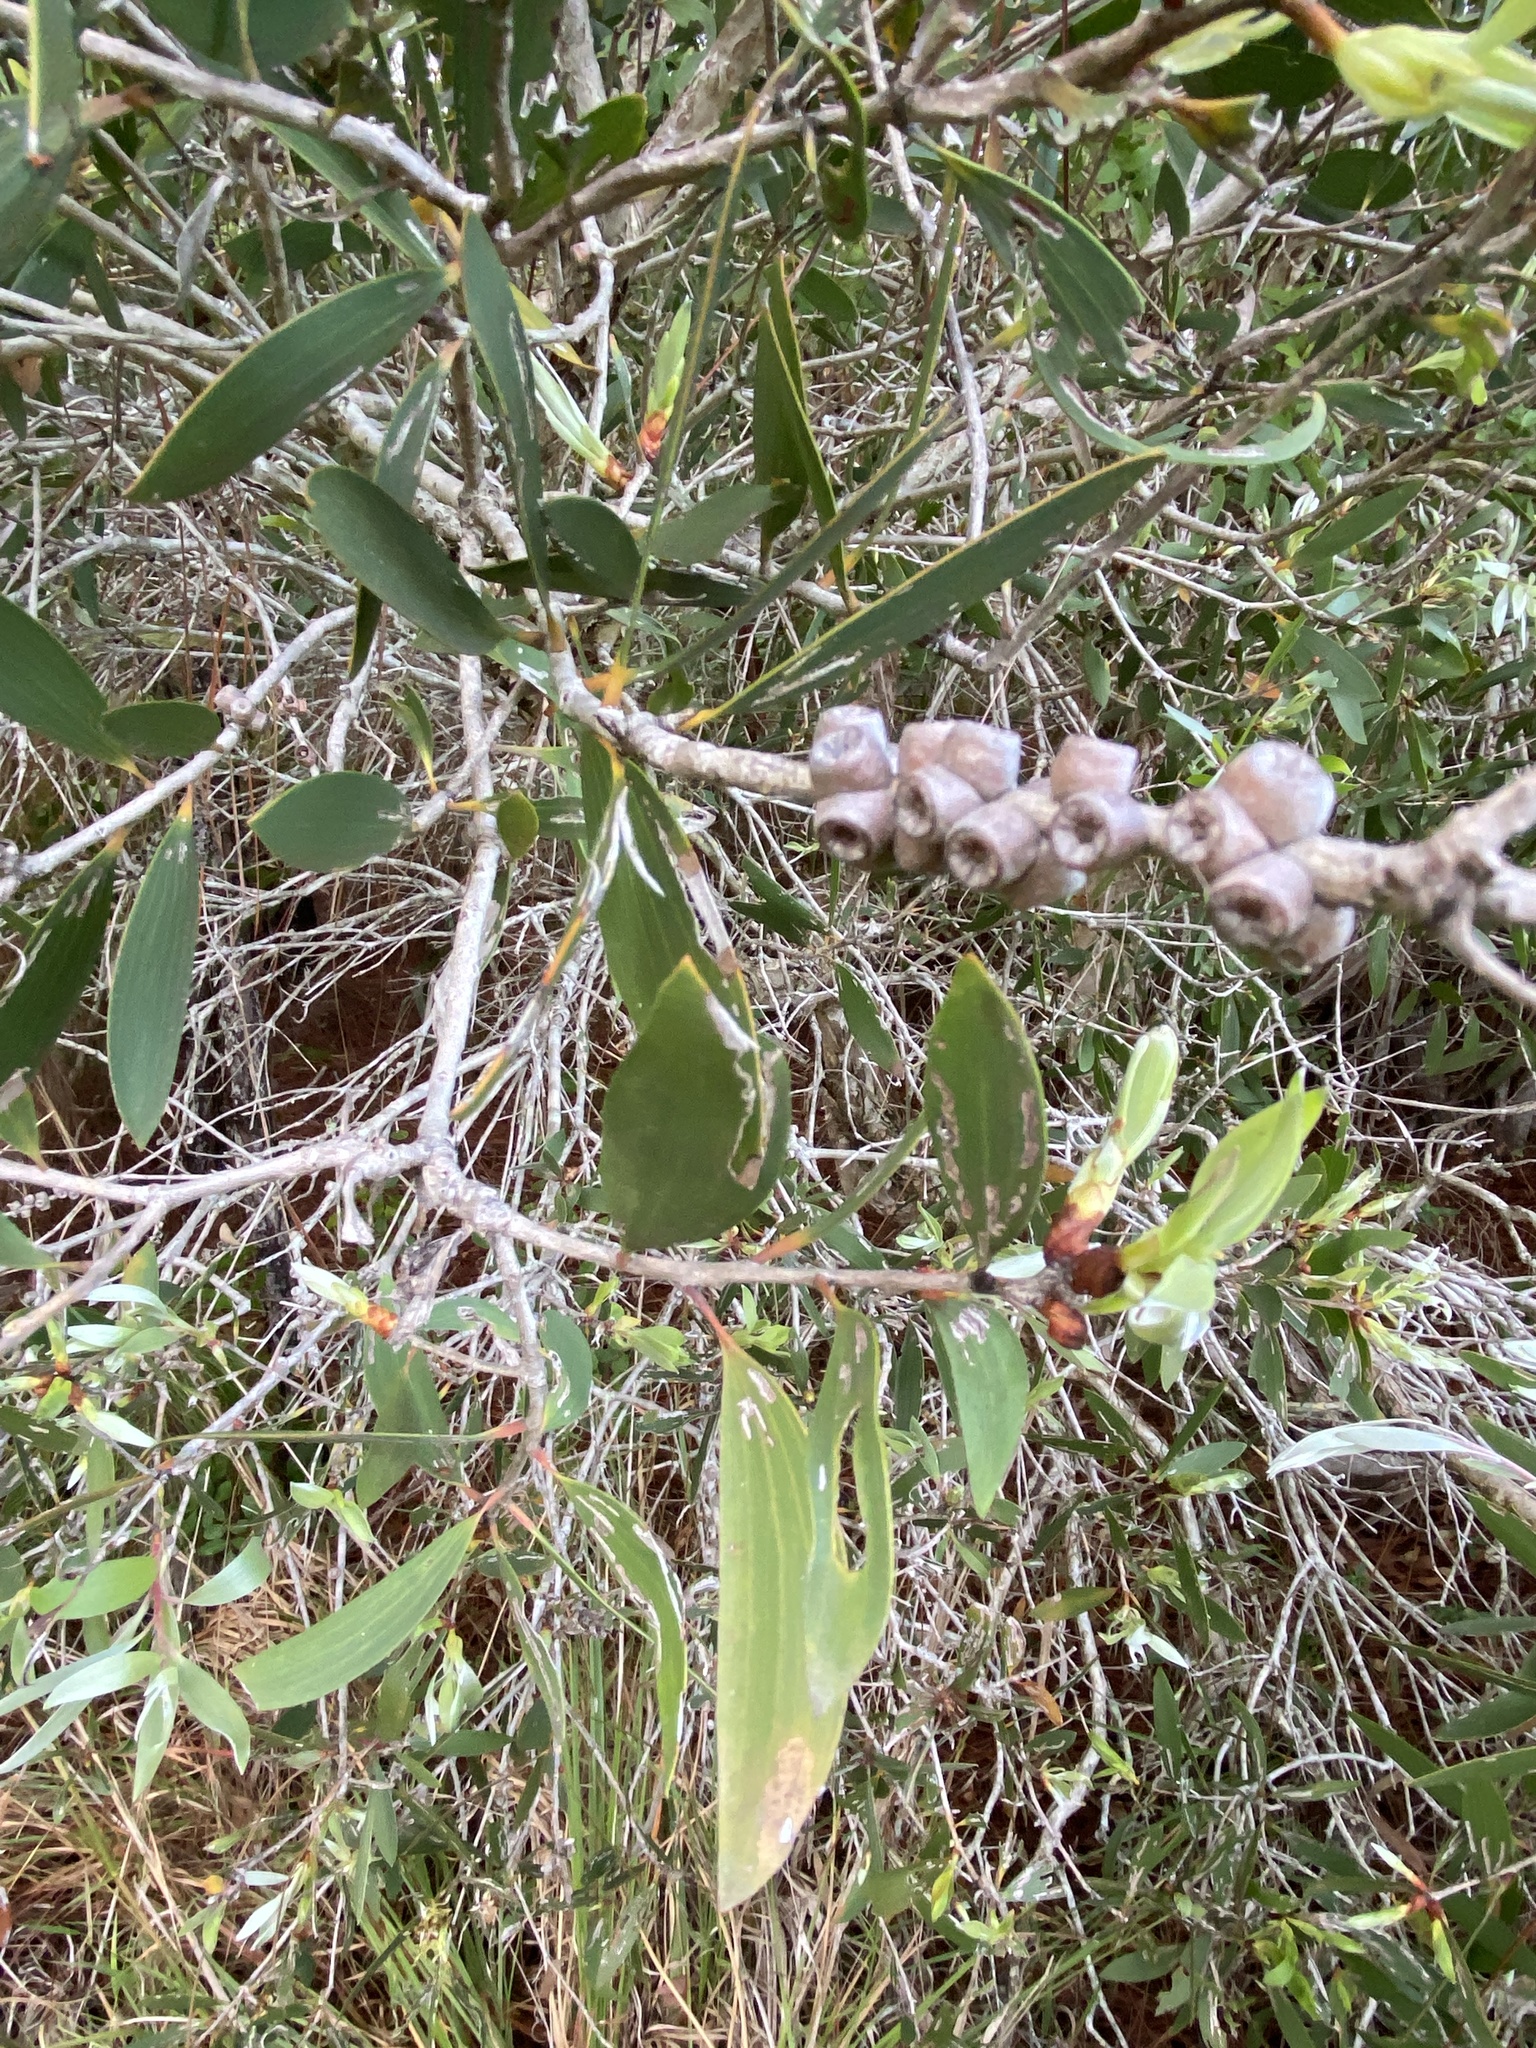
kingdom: Plantae
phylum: Tracheophyta
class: Magnoliopsida
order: Myrtales
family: Myrtaceae
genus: Melaleuca
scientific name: Melaleuca quinquenervia
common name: Punktree
